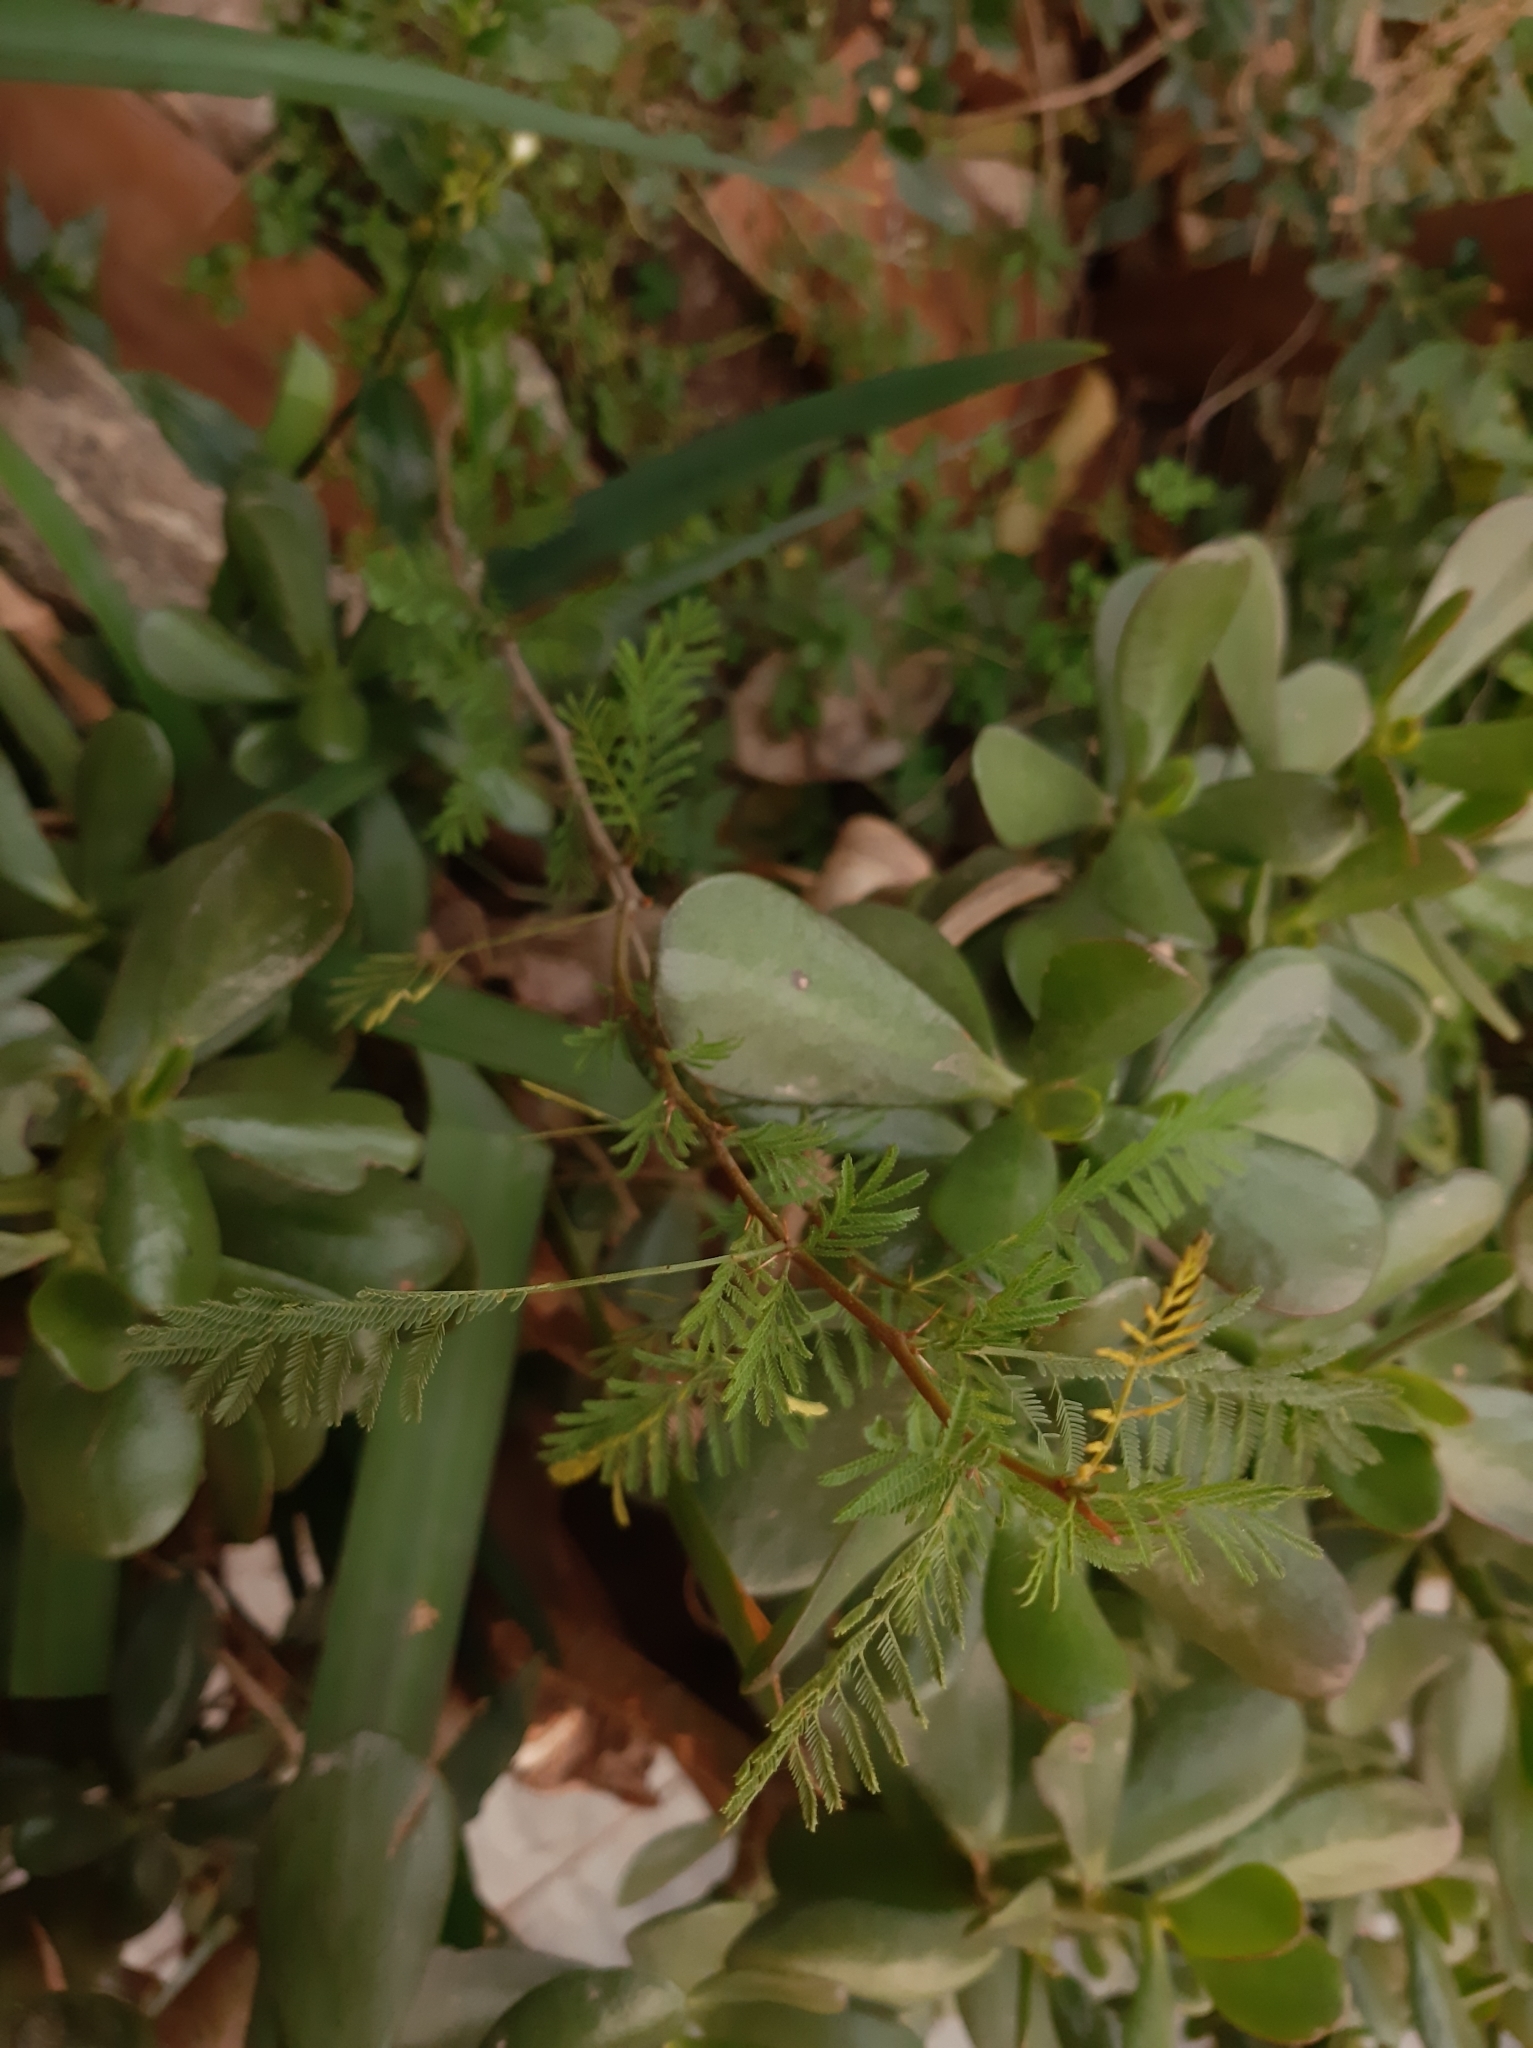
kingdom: Plantae
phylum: Tracheophyta
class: Magnoliopsida
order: Fabales
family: Fabaceae
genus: Vachellia
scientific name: Vachellia caven
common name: Roman cassie
